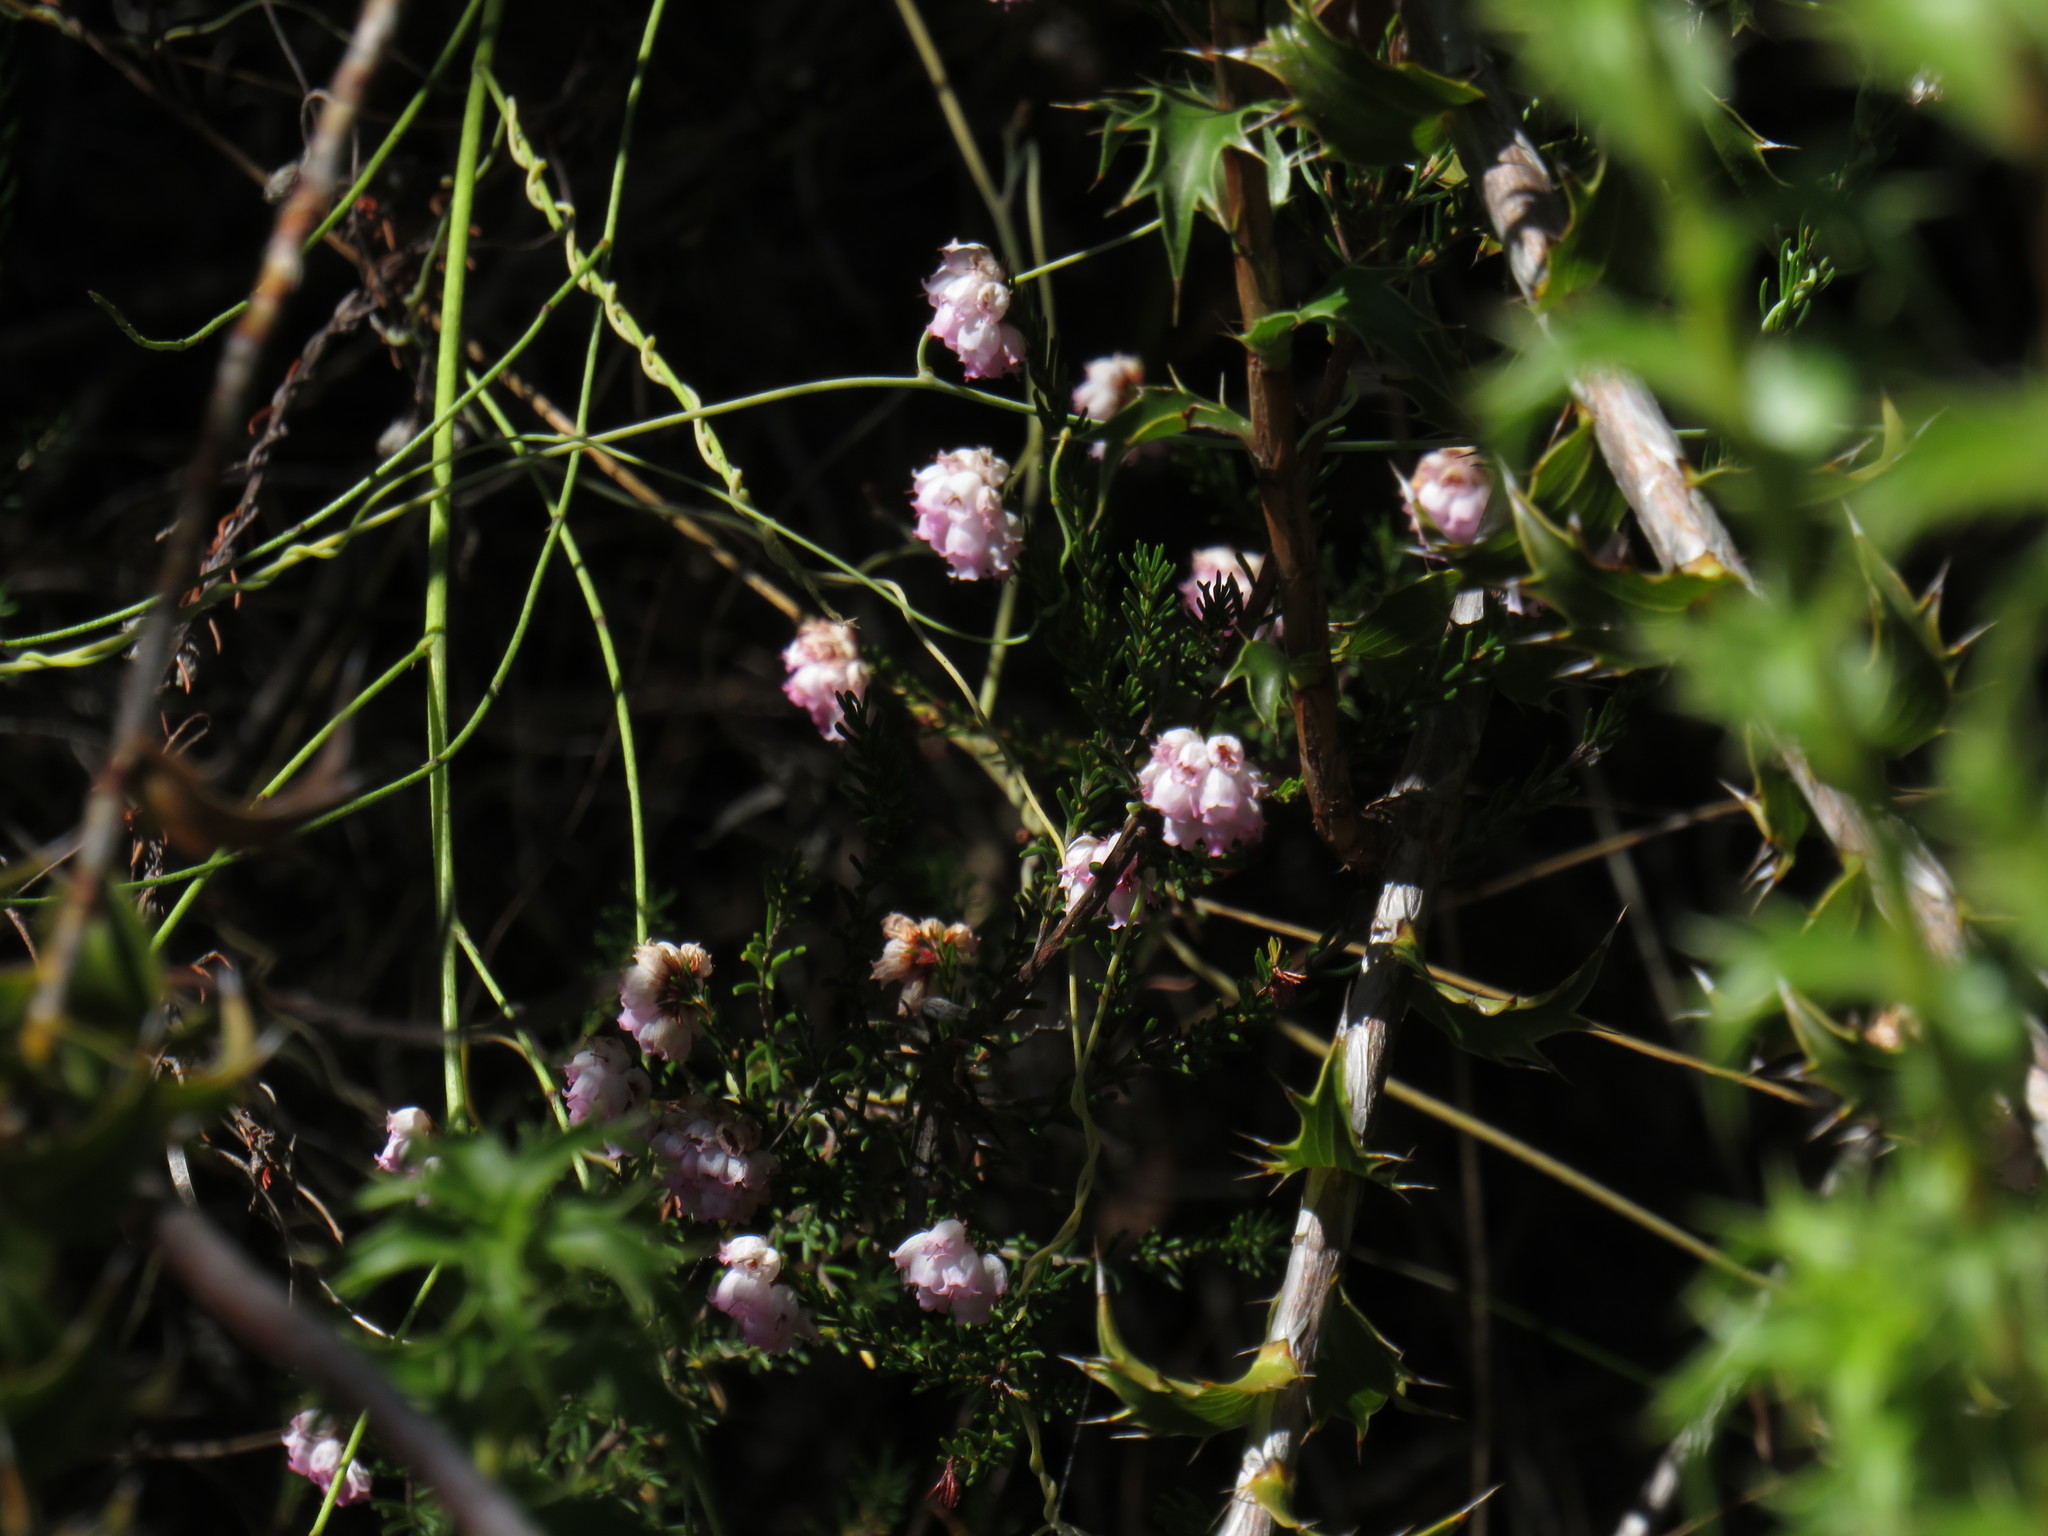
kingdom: Plantae
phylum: Tracheophyta
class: Magnoliopsida
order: Ericales
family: Ericaceae
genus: Erica
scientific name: Erica oxysepala
